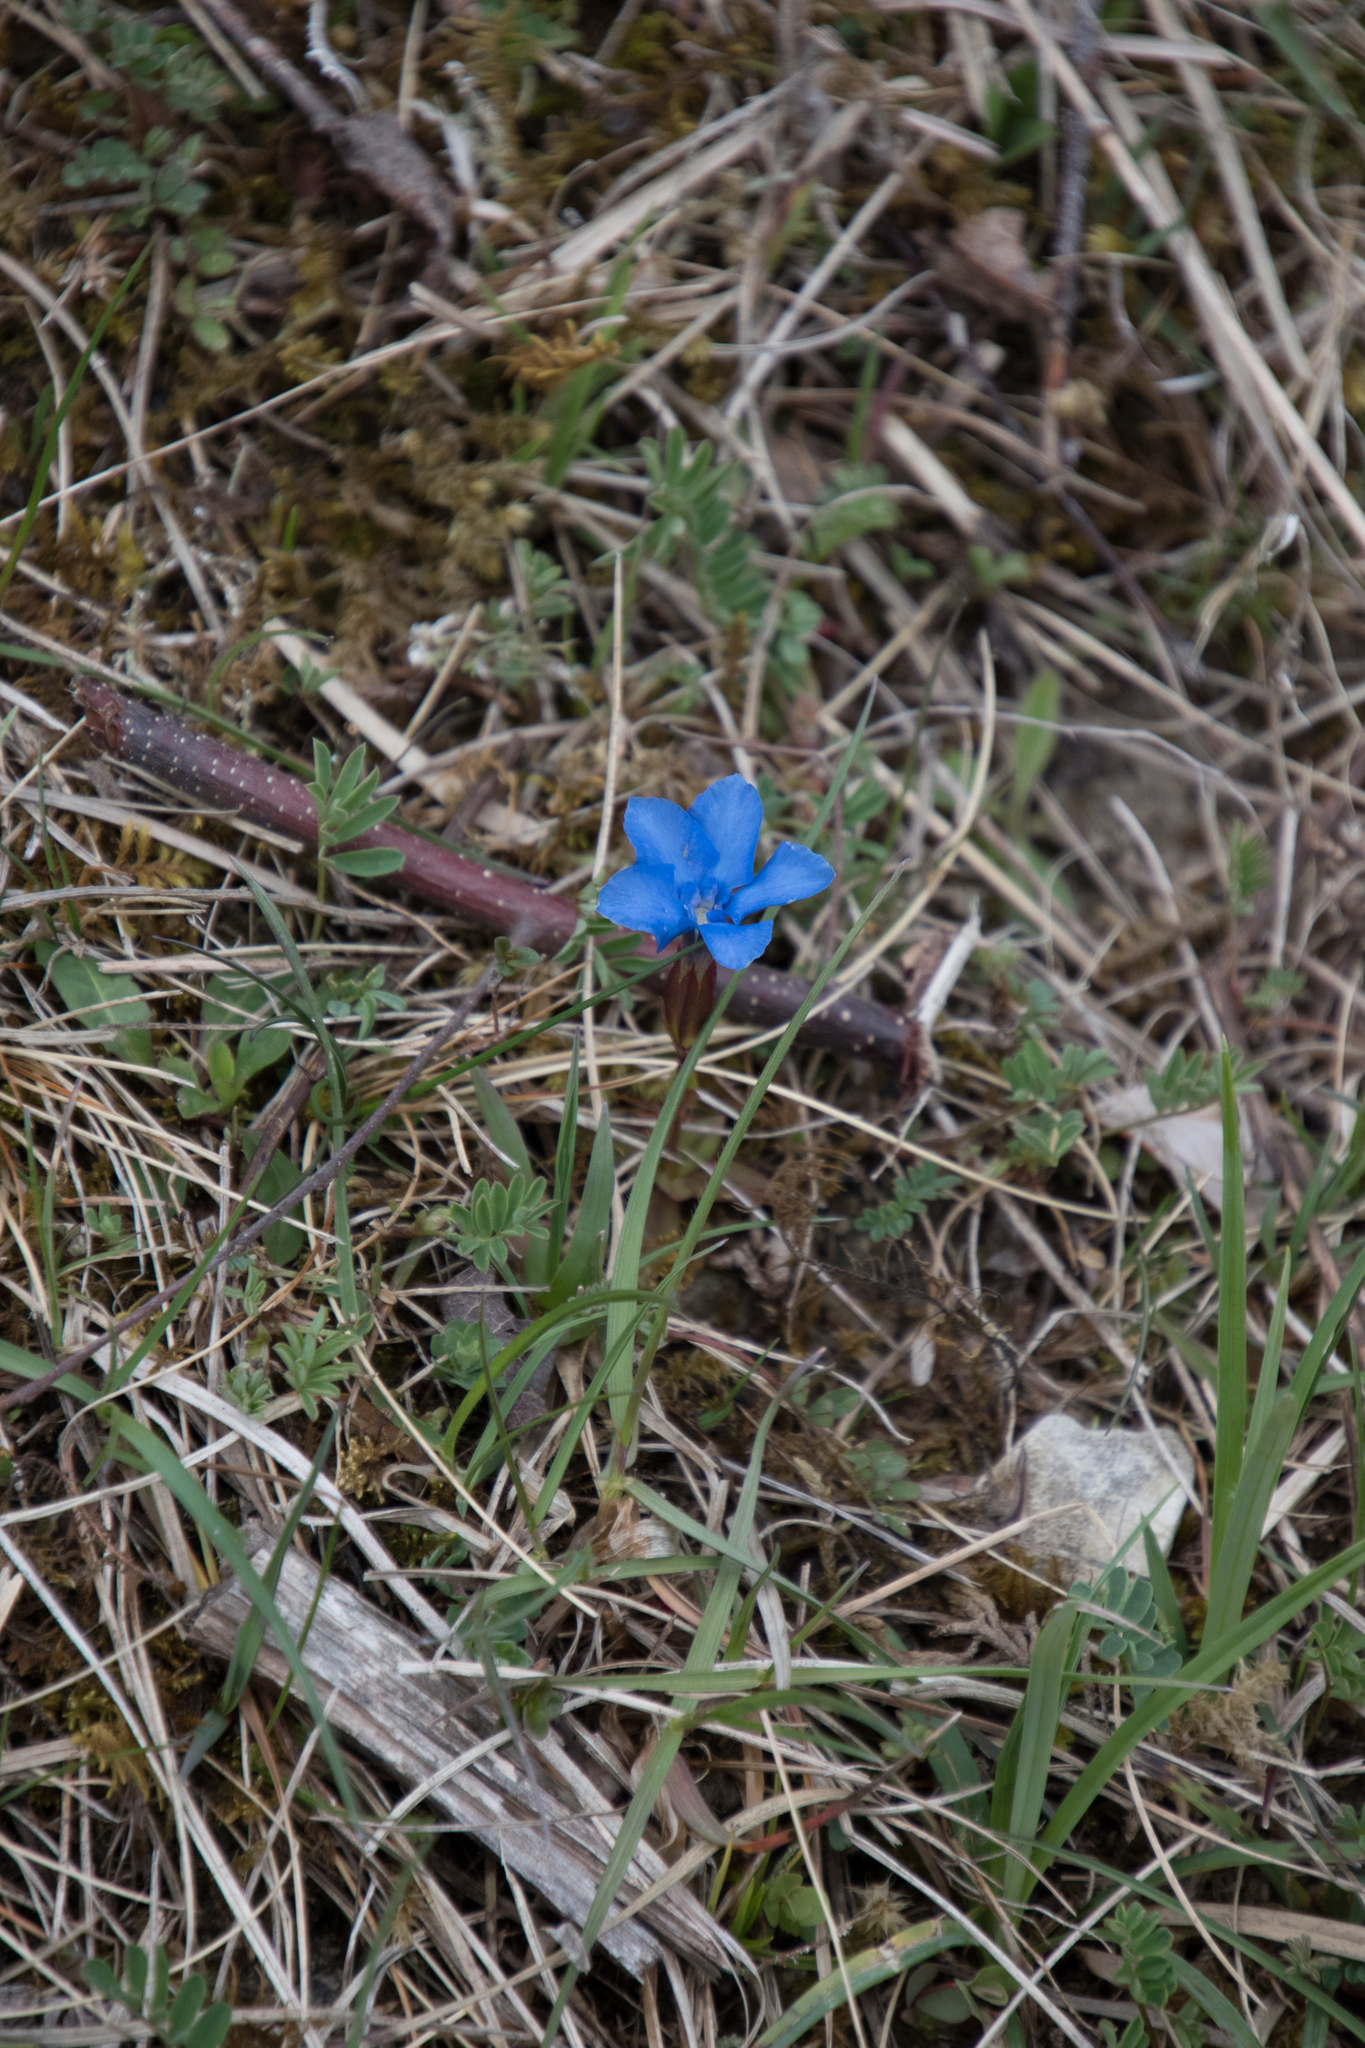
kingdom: Plantae
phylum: Tracheophyta
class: Magnoliopsida
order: Gentianales
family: Gentianaceae
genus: Gentiana
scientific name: Gentiana verna
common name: Spring gentian
